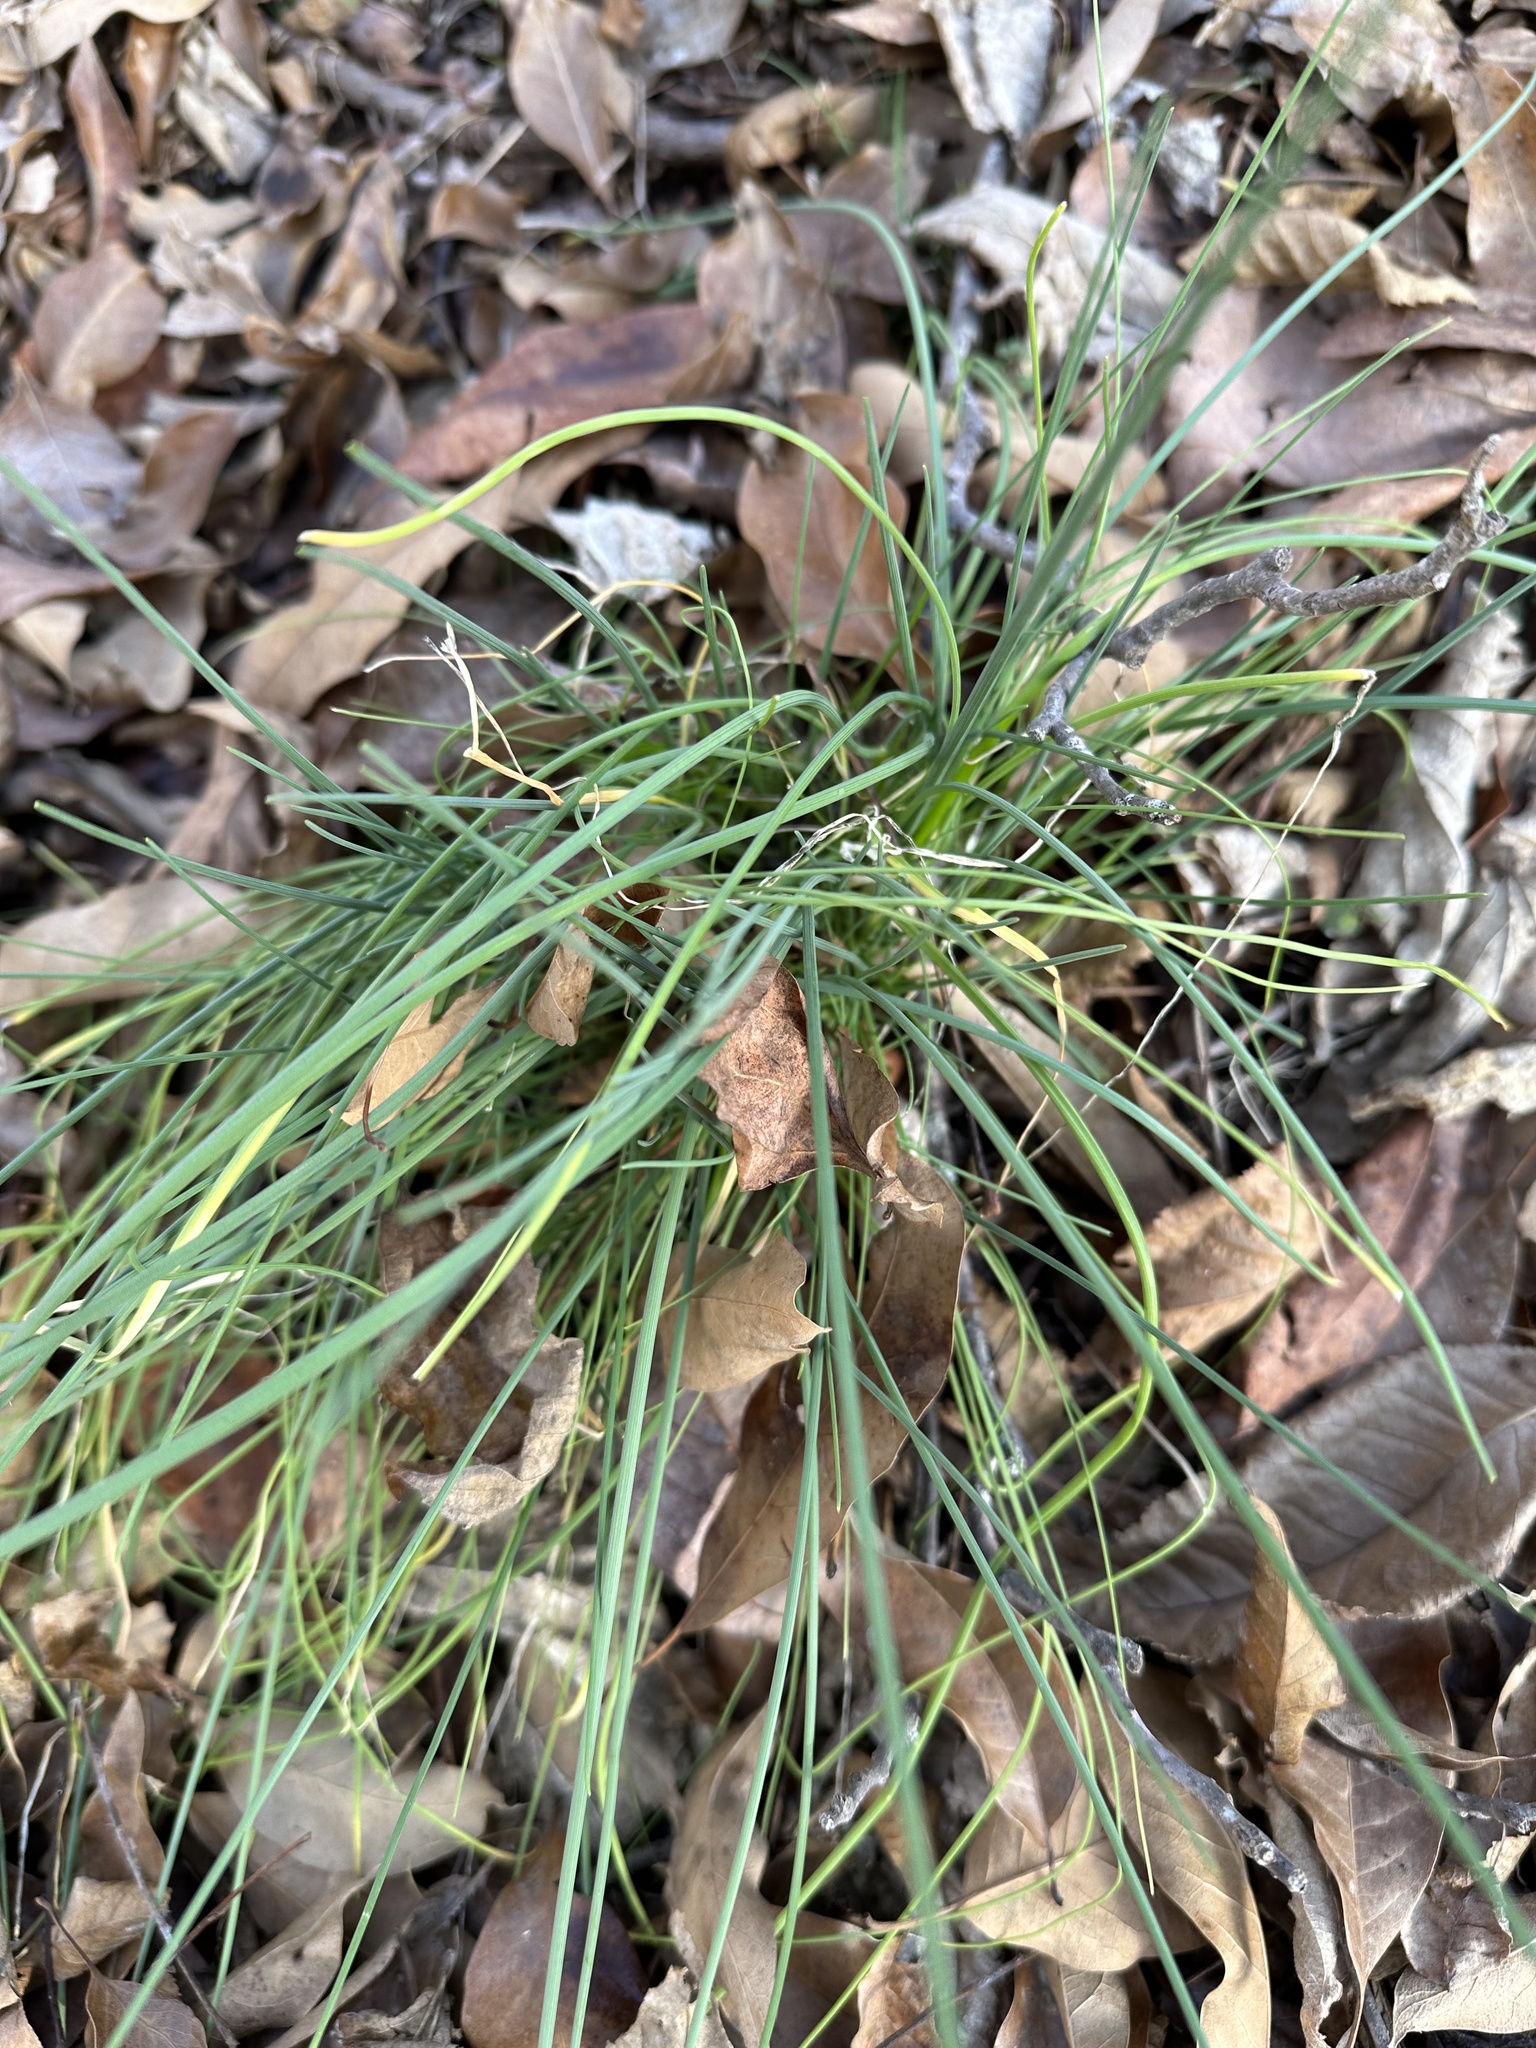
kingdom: Plantae
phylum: Tracheophyta
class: Liliopsida
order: Asparagales
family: Amaryllidaceae
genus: Allium
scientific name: Allium vineale
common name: Crow garlic
